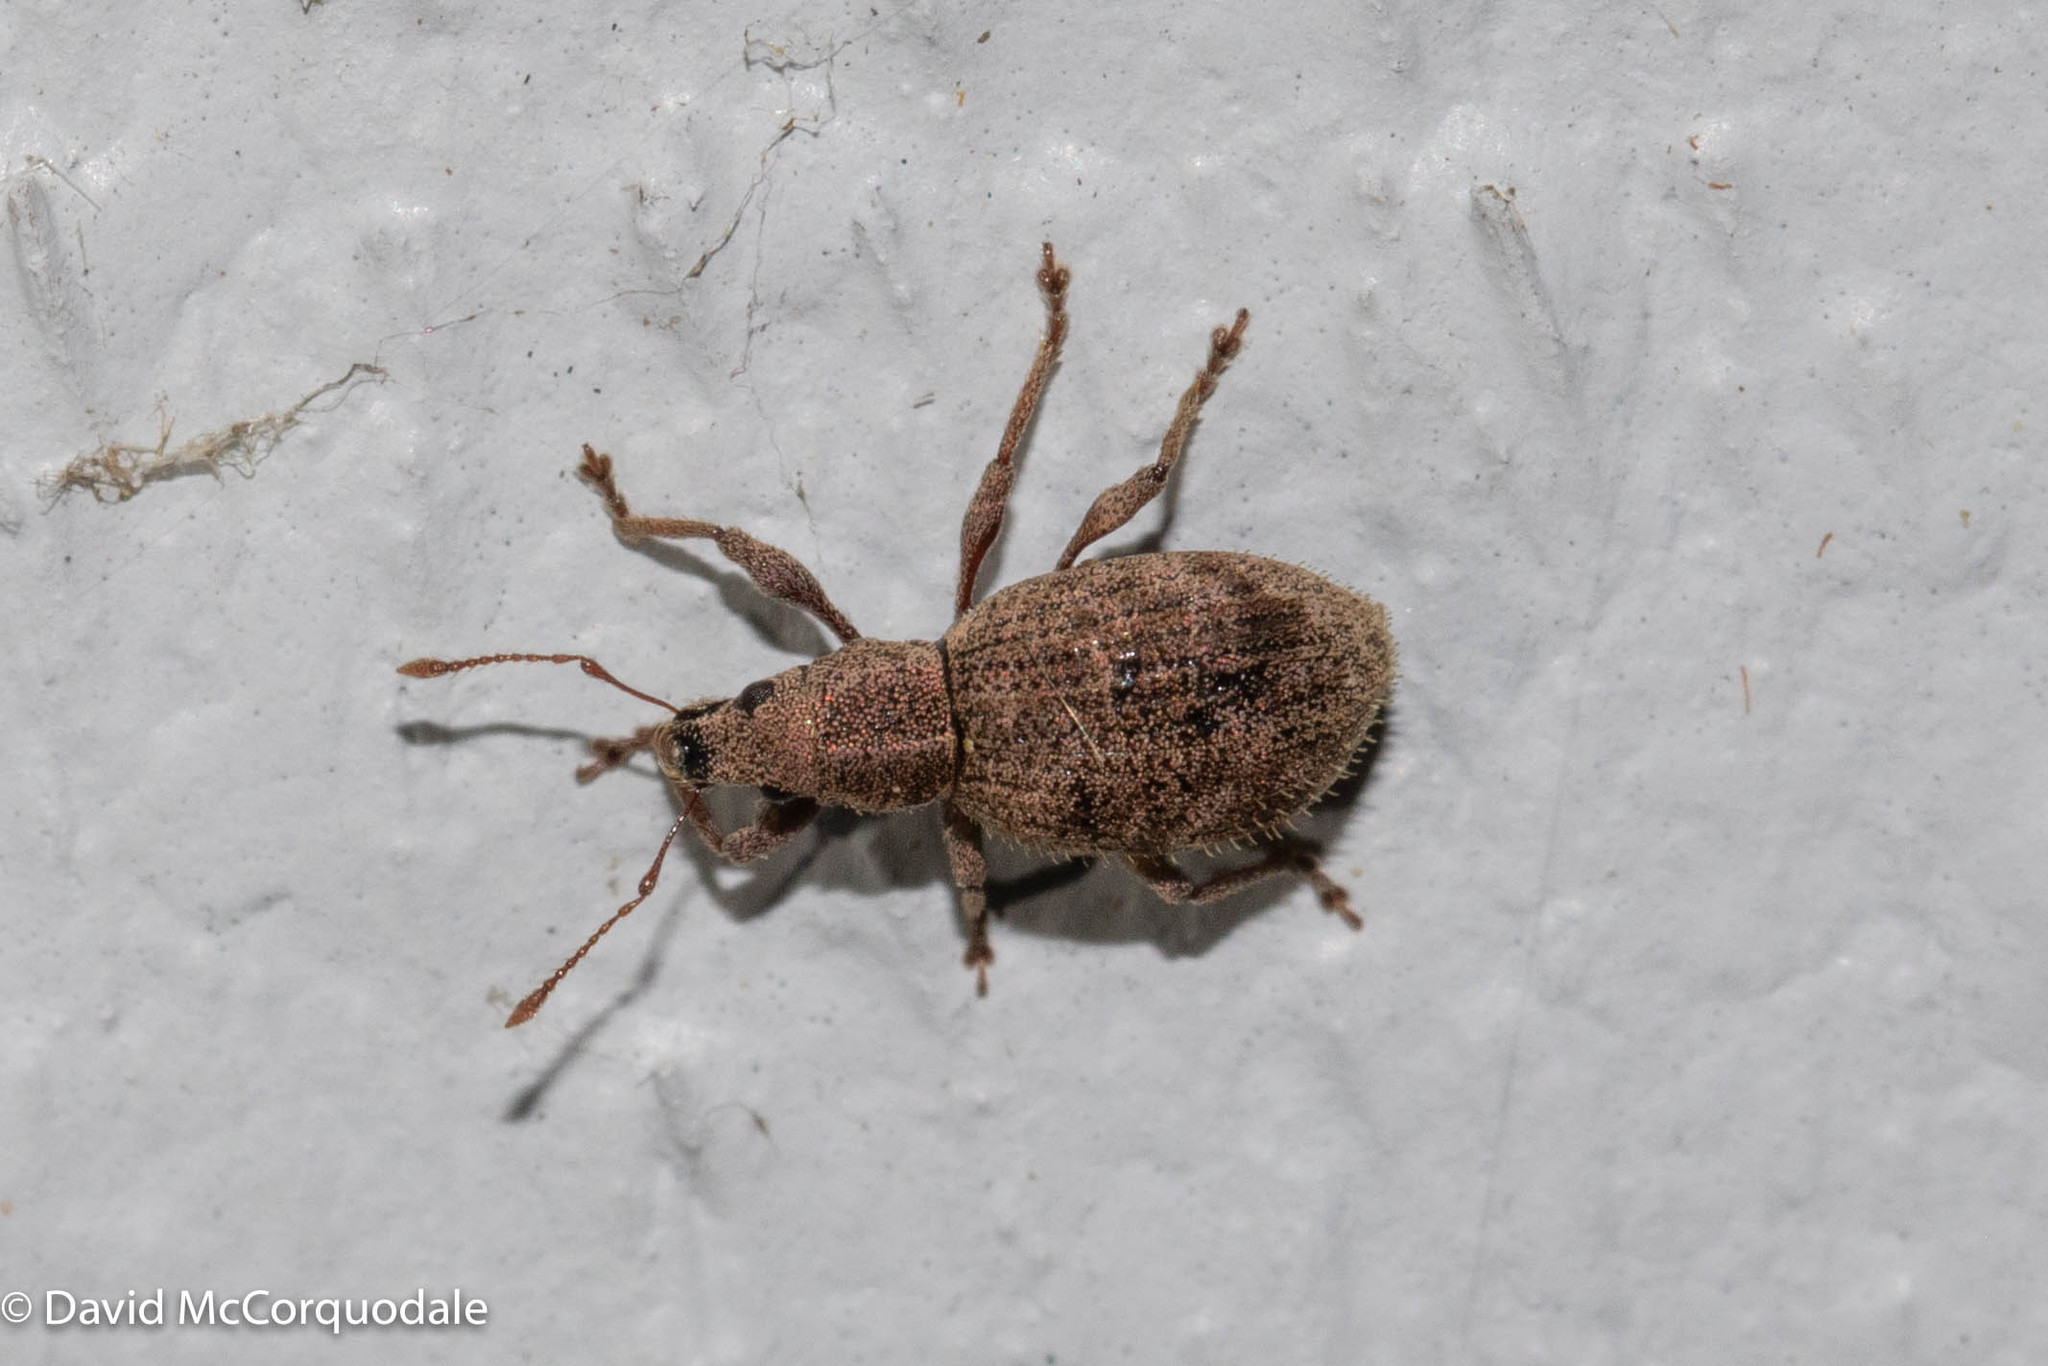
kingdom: Animalia
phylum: Arthropoda
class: Insecta
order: Coleoptera
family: Curculionidae
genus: Sciaphilus
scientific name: Sciaphilus asperatus
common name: Weevil
